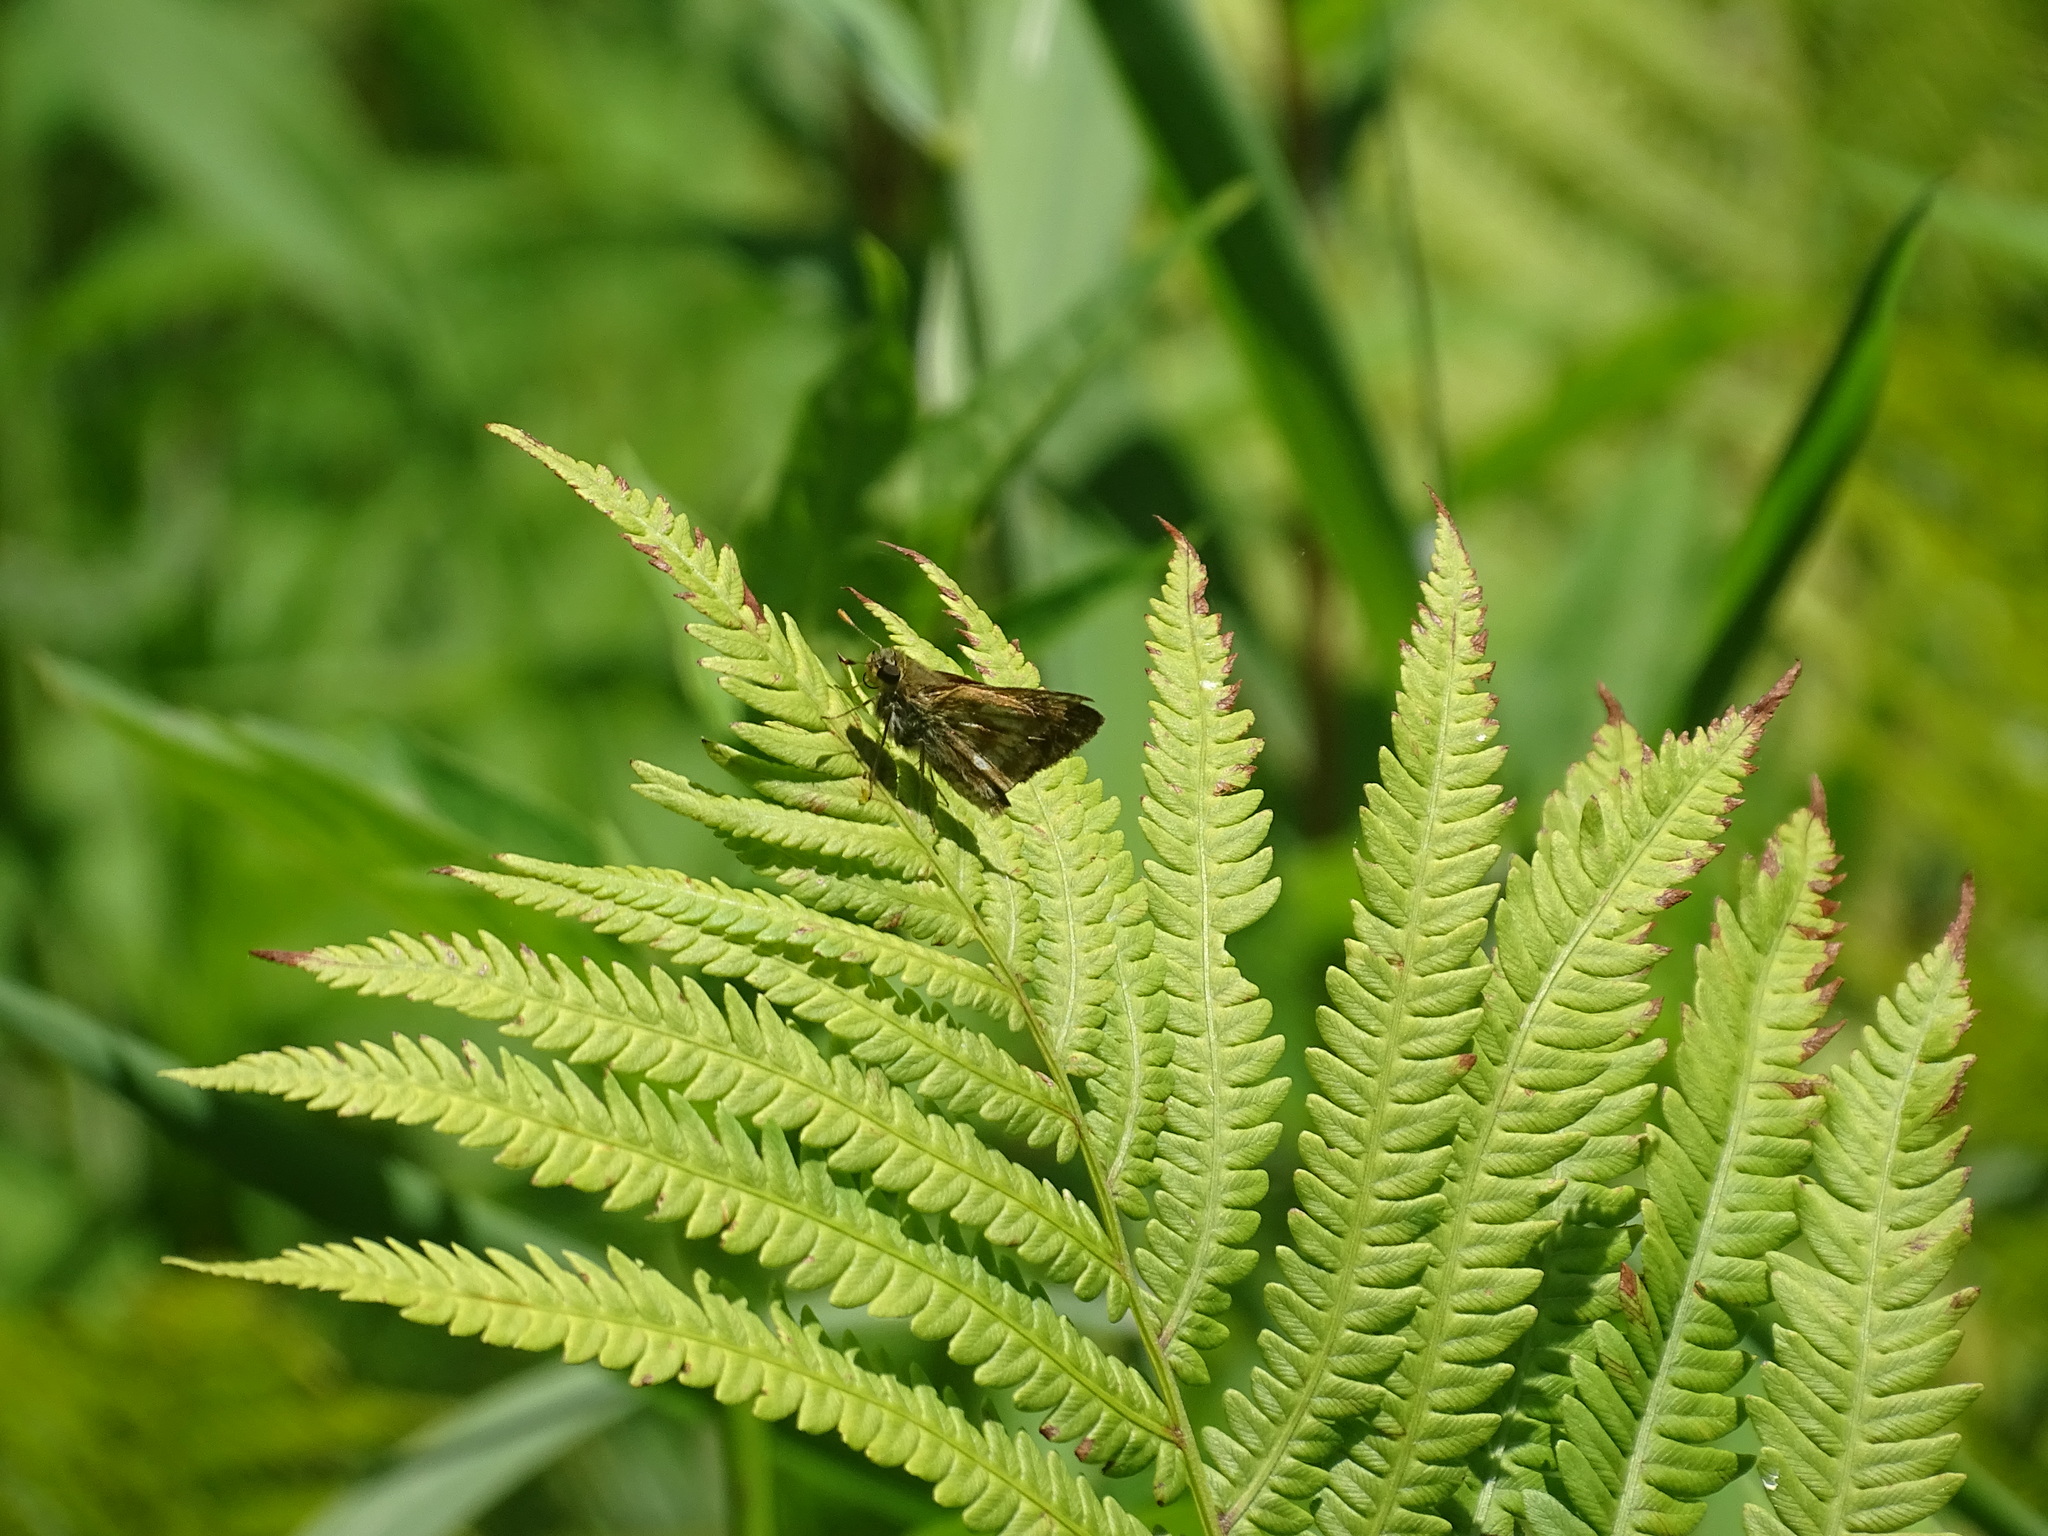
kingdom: Animalia
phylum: Arthropoda
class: Insecta
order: Lepidoptera
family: Hesperiidae
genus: Polites
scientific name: Polites mystic
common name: Long dash
